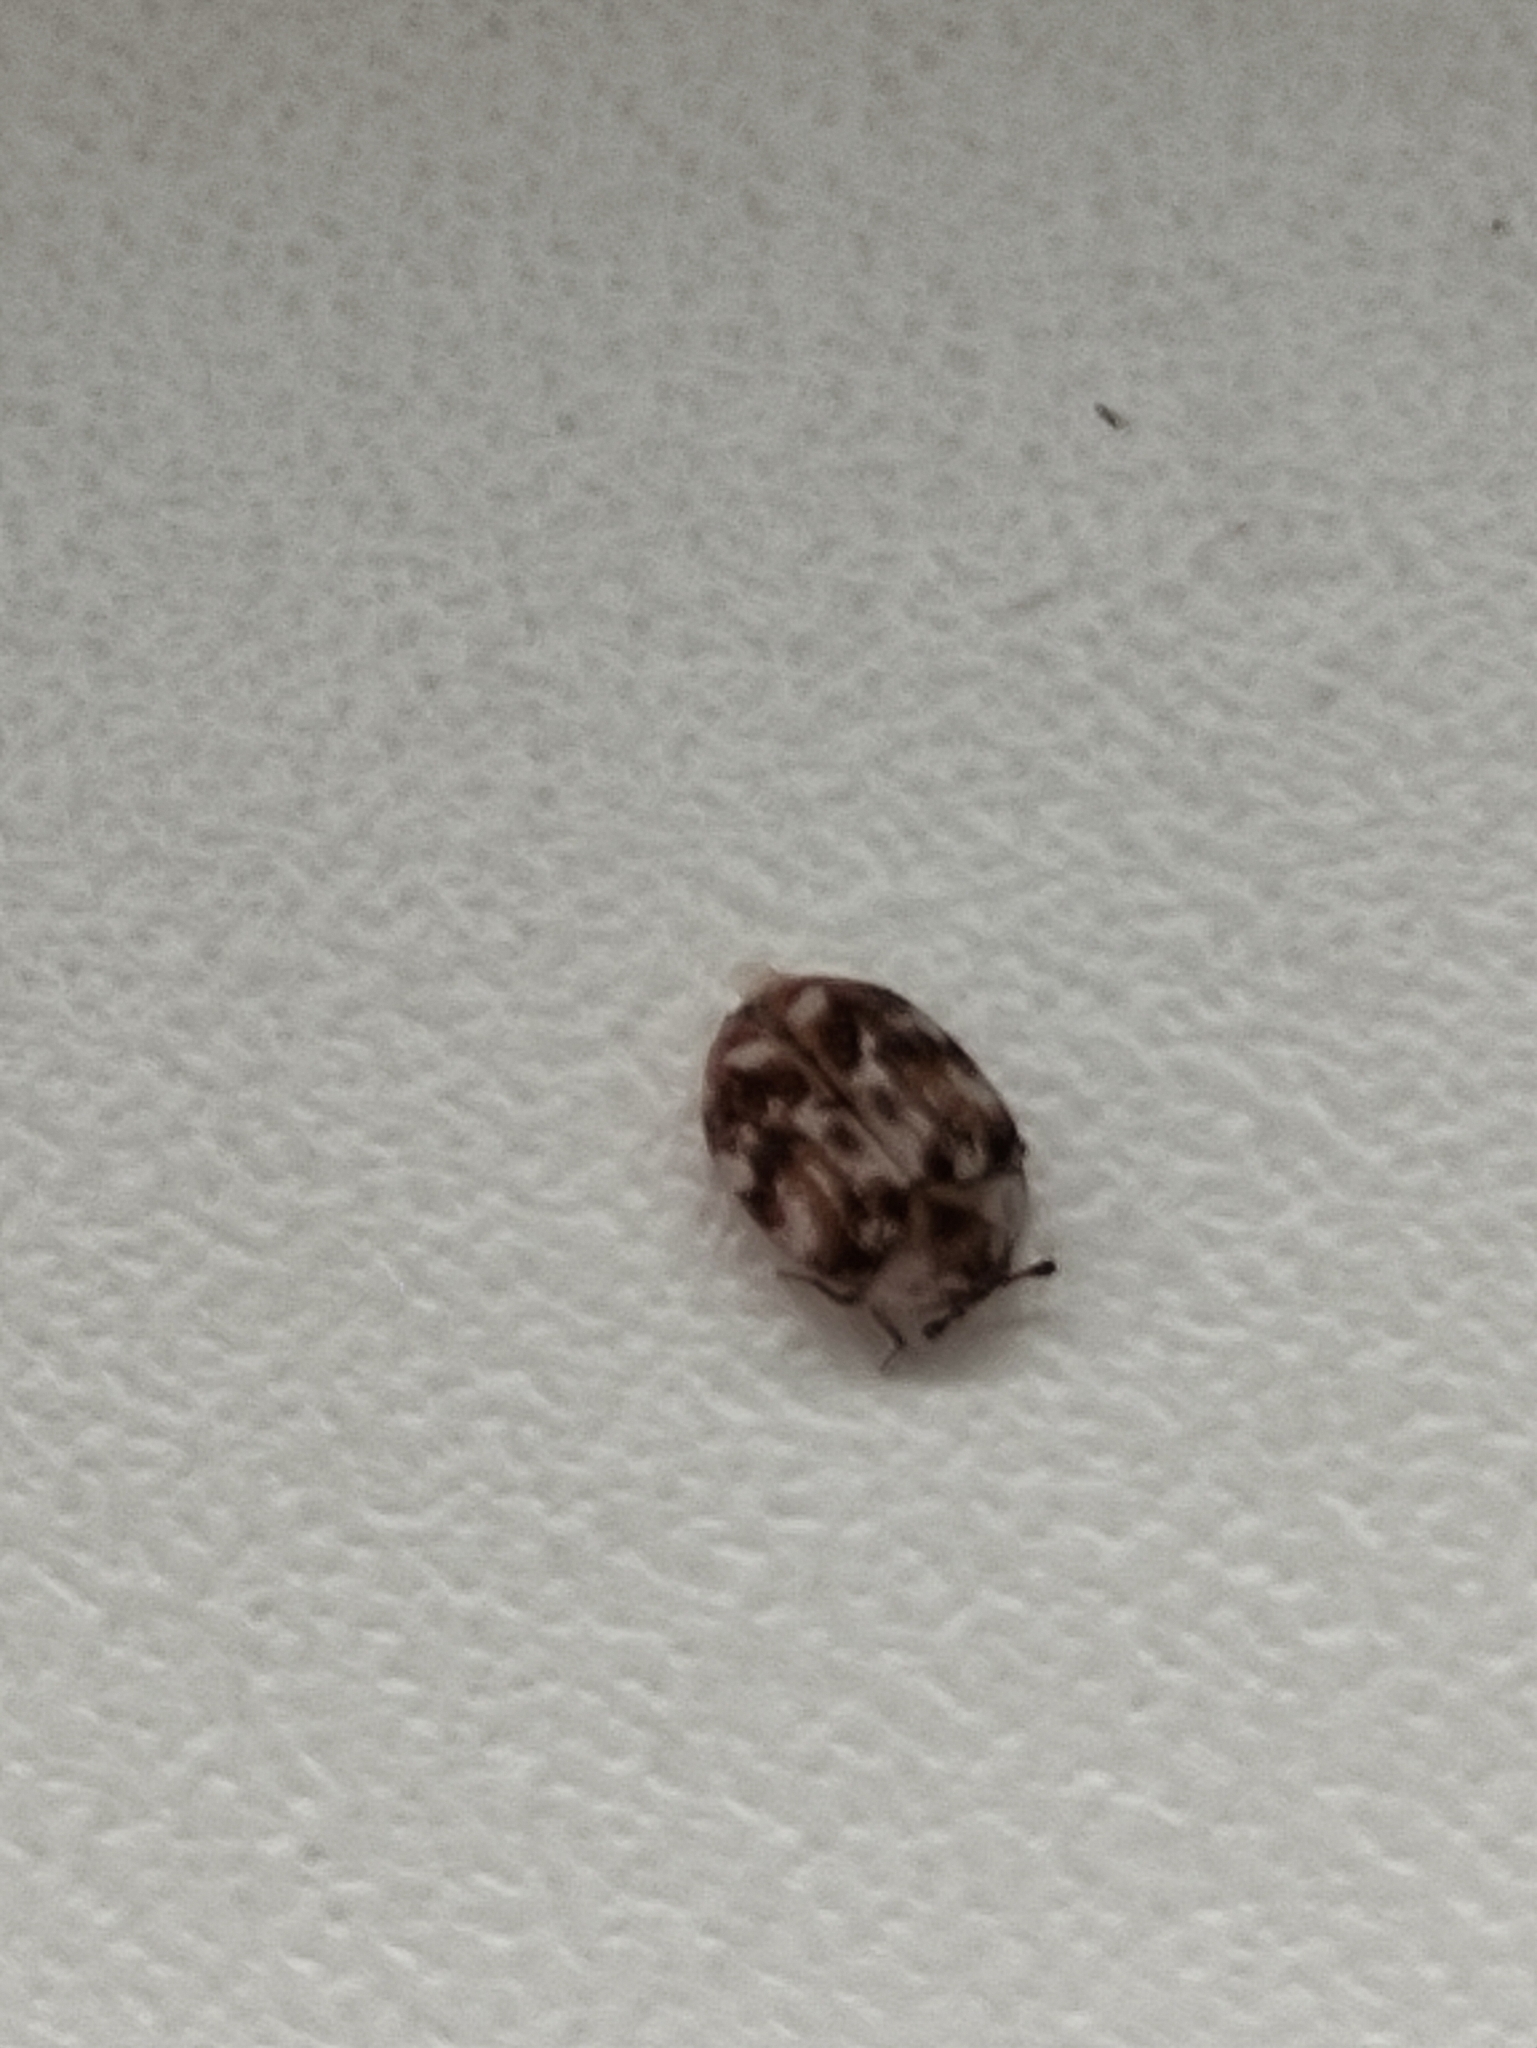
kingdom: Animalia
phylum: Arthropoda
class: Insecta
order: Coleoptera
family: Dermestidae
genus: Anthrenus
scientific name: Anthrenus picturatus
